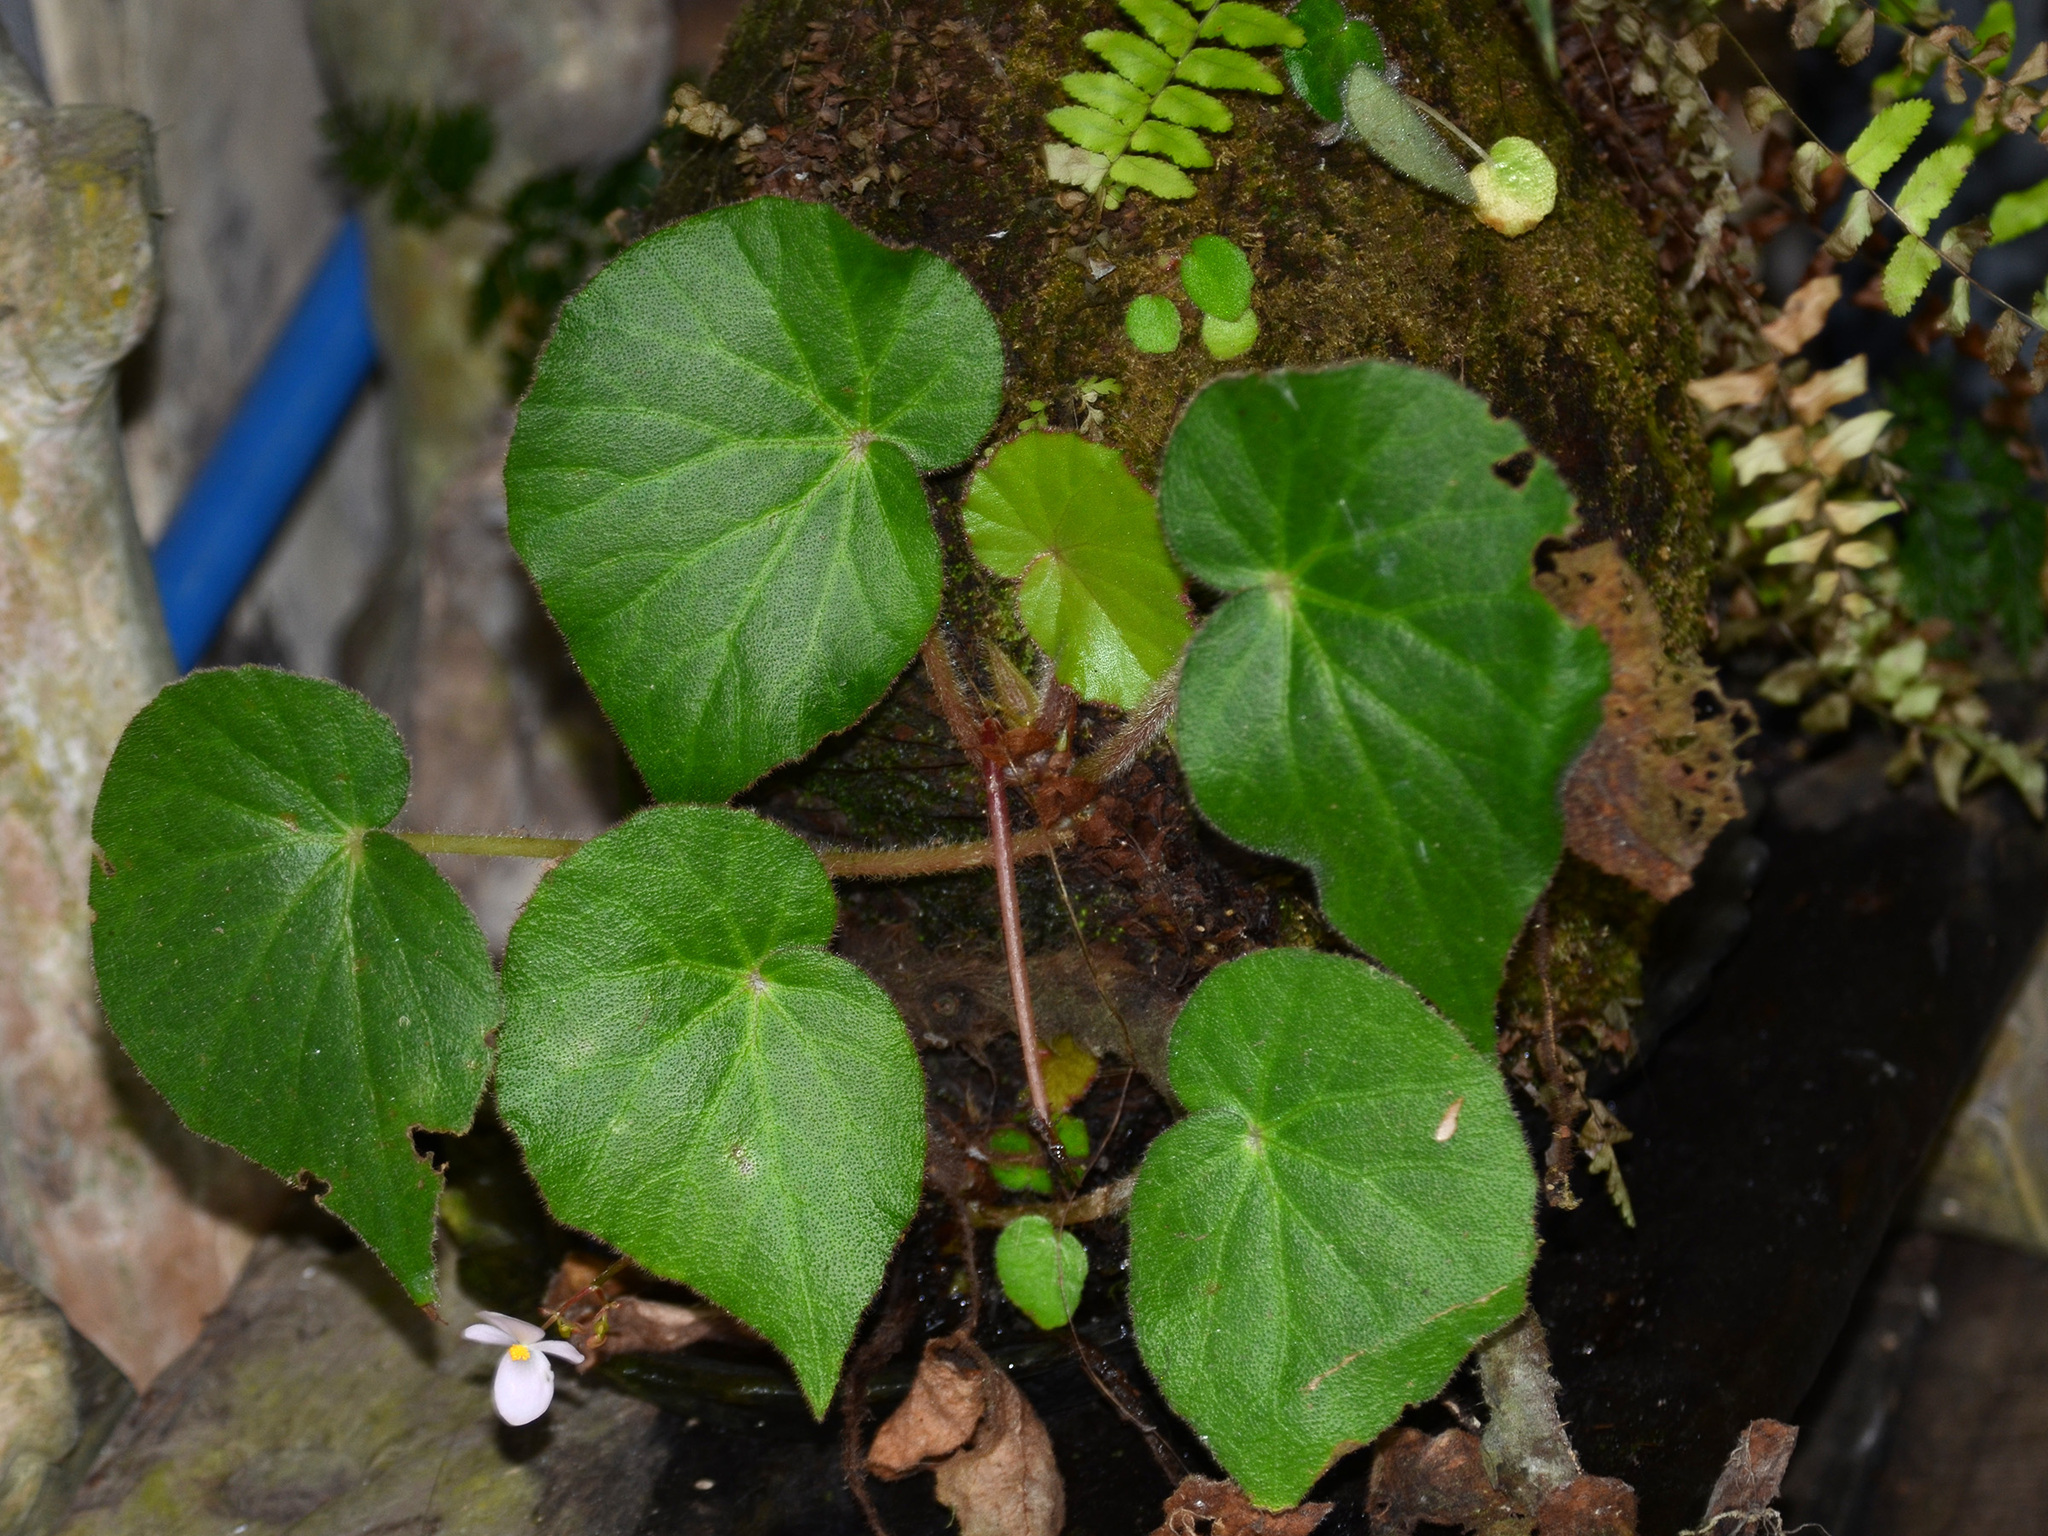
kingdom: Plantae
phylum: Tracheophyta
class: Magnoliopsida
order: Cucurbitales
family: Begoniaceae
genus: Begonia
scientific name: Begonia manillensis
